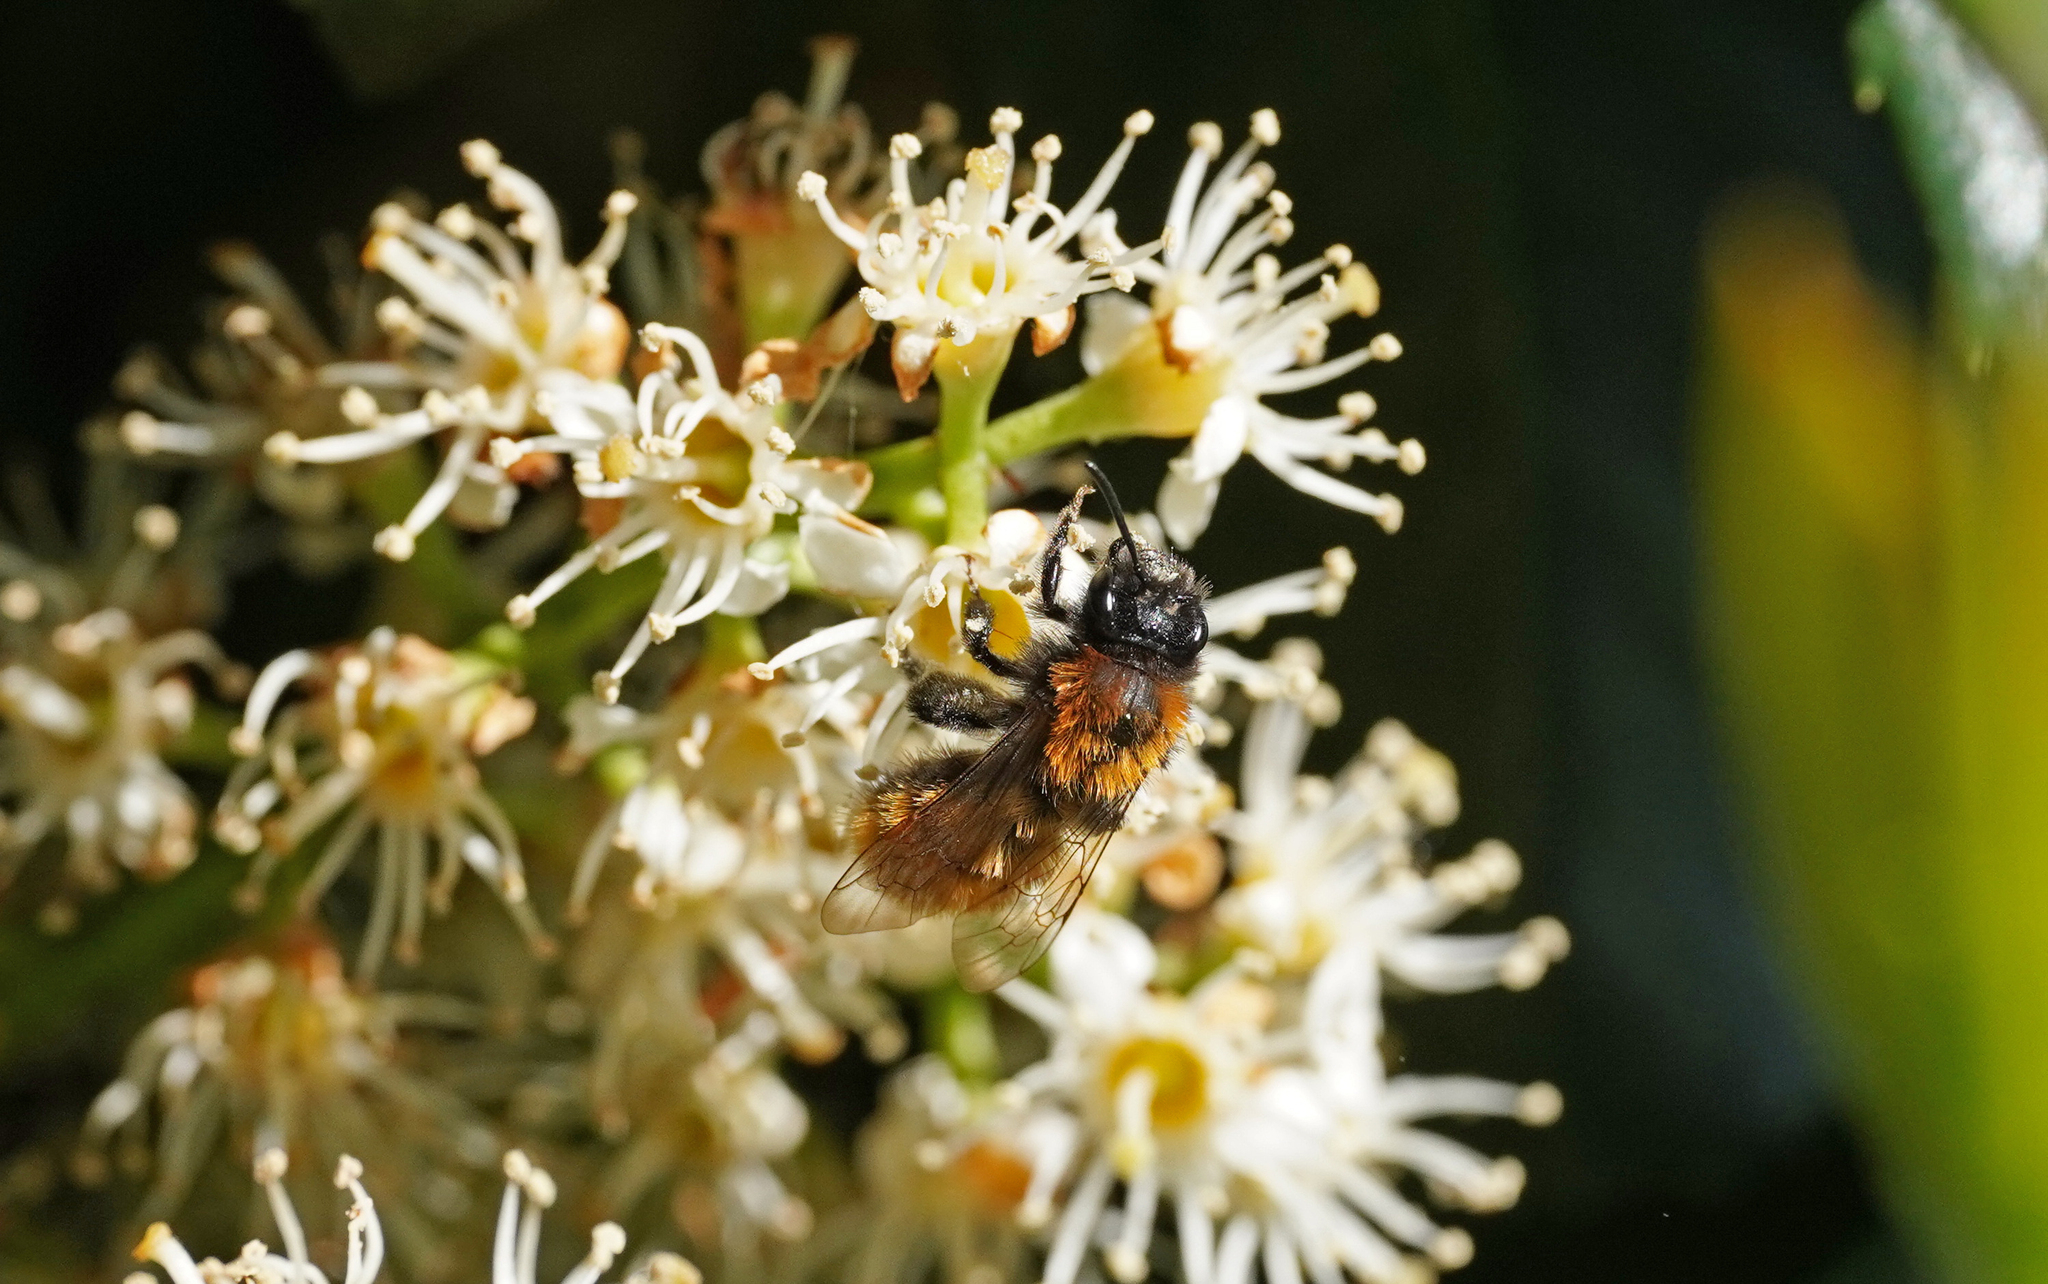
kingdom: Animalia
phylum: Arthropoda
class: Insecta
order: Hymenoptera
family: Andrenidae
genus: Andrena
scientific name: Andrena fulva
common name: Tawny mining bee
